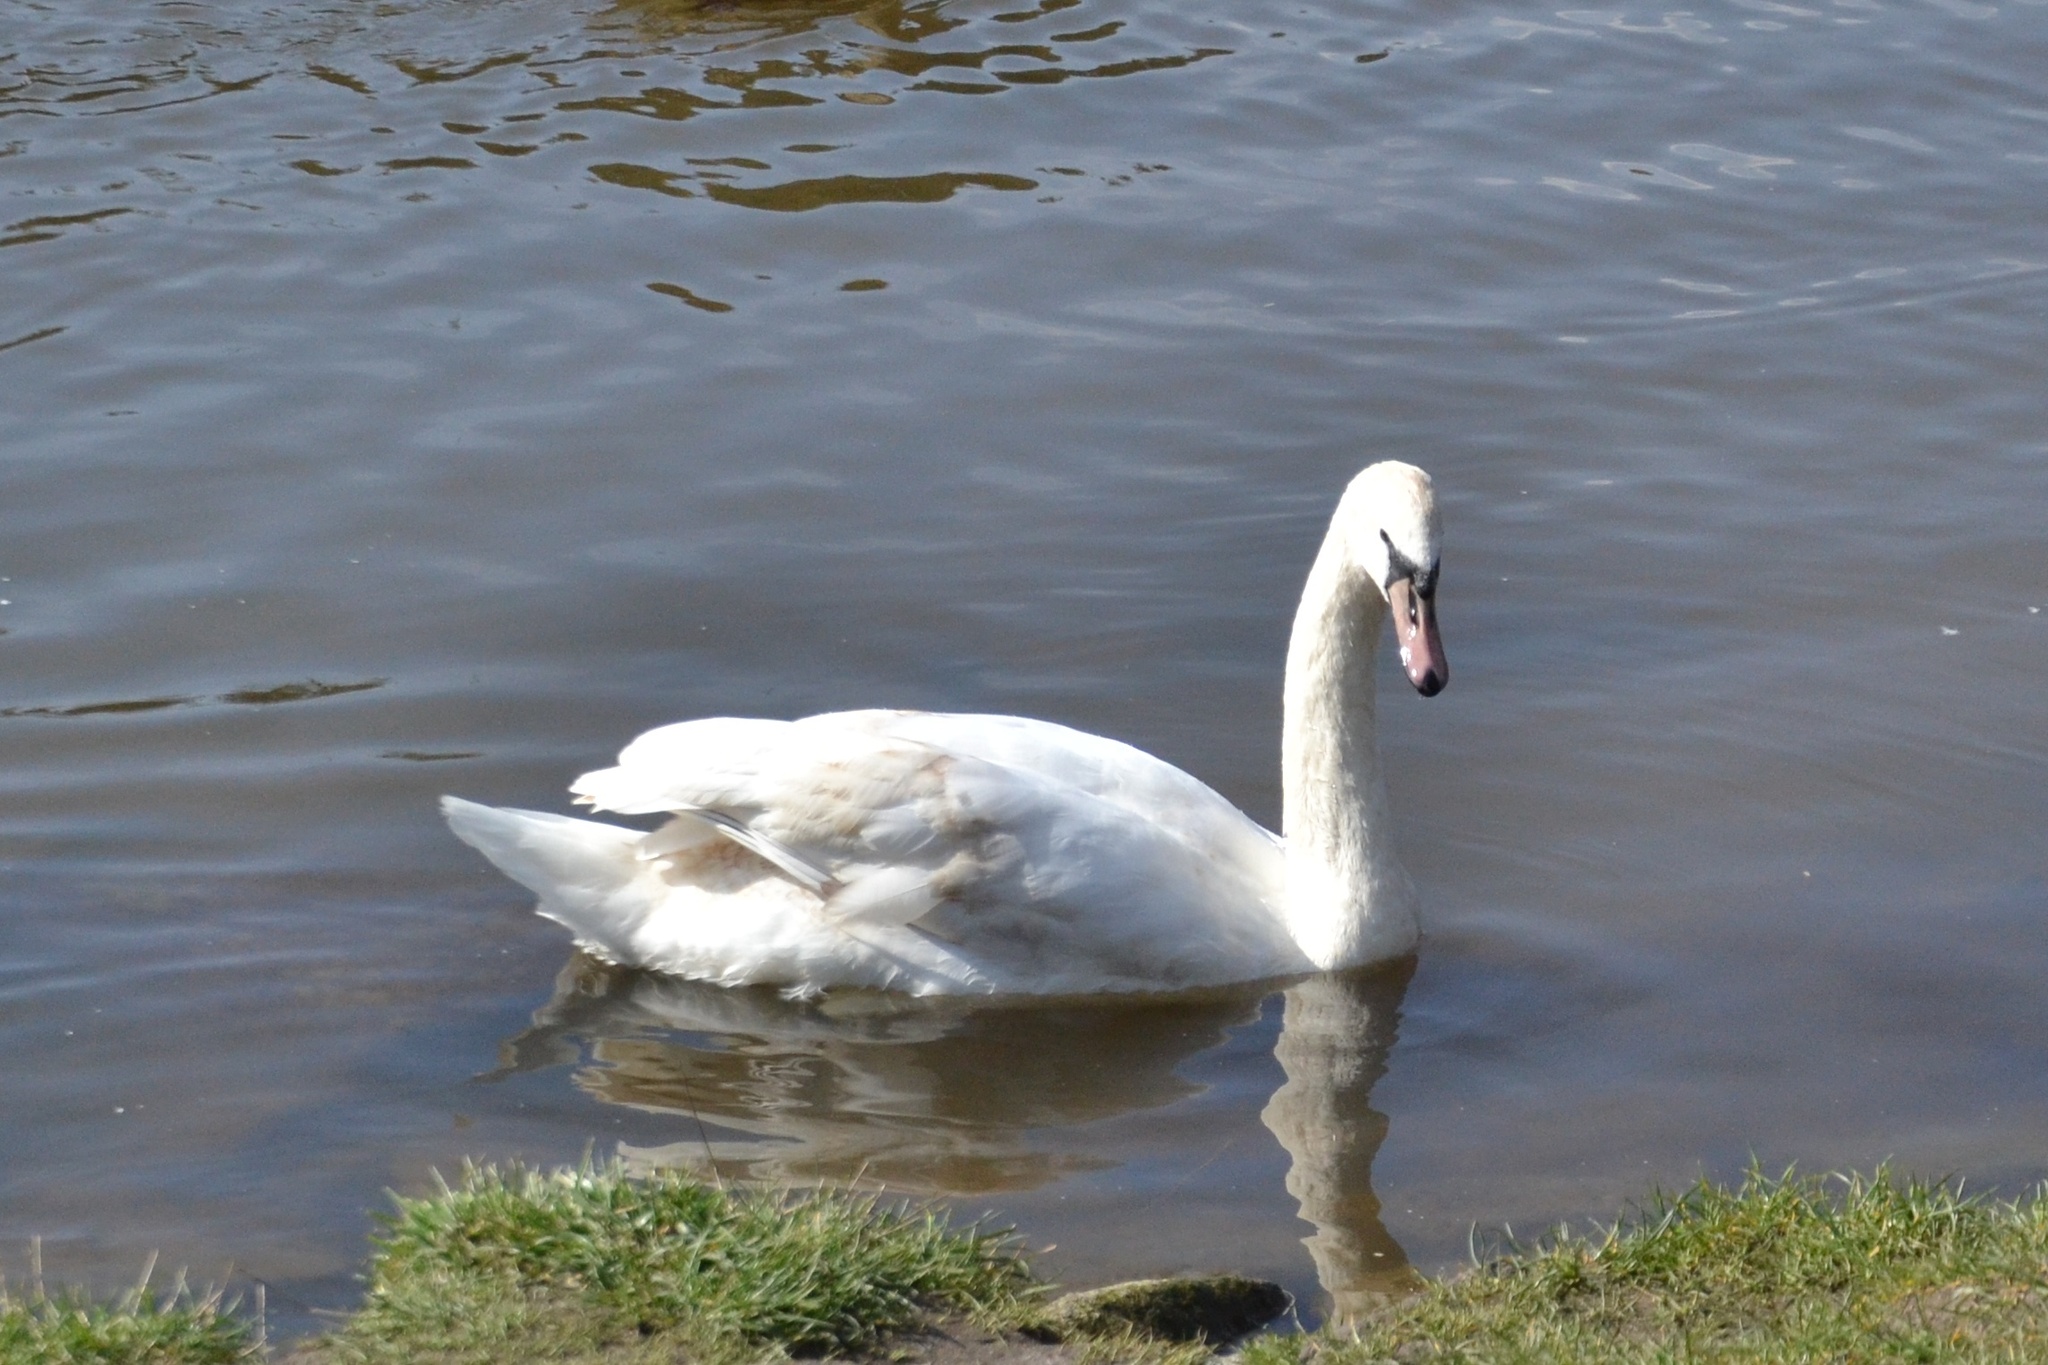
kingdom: Animalia
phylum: Chordata
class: Aves
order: Anseriformes
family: Anatidae
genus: Cygnus
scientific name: Cygnus olor
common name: Mute swan
